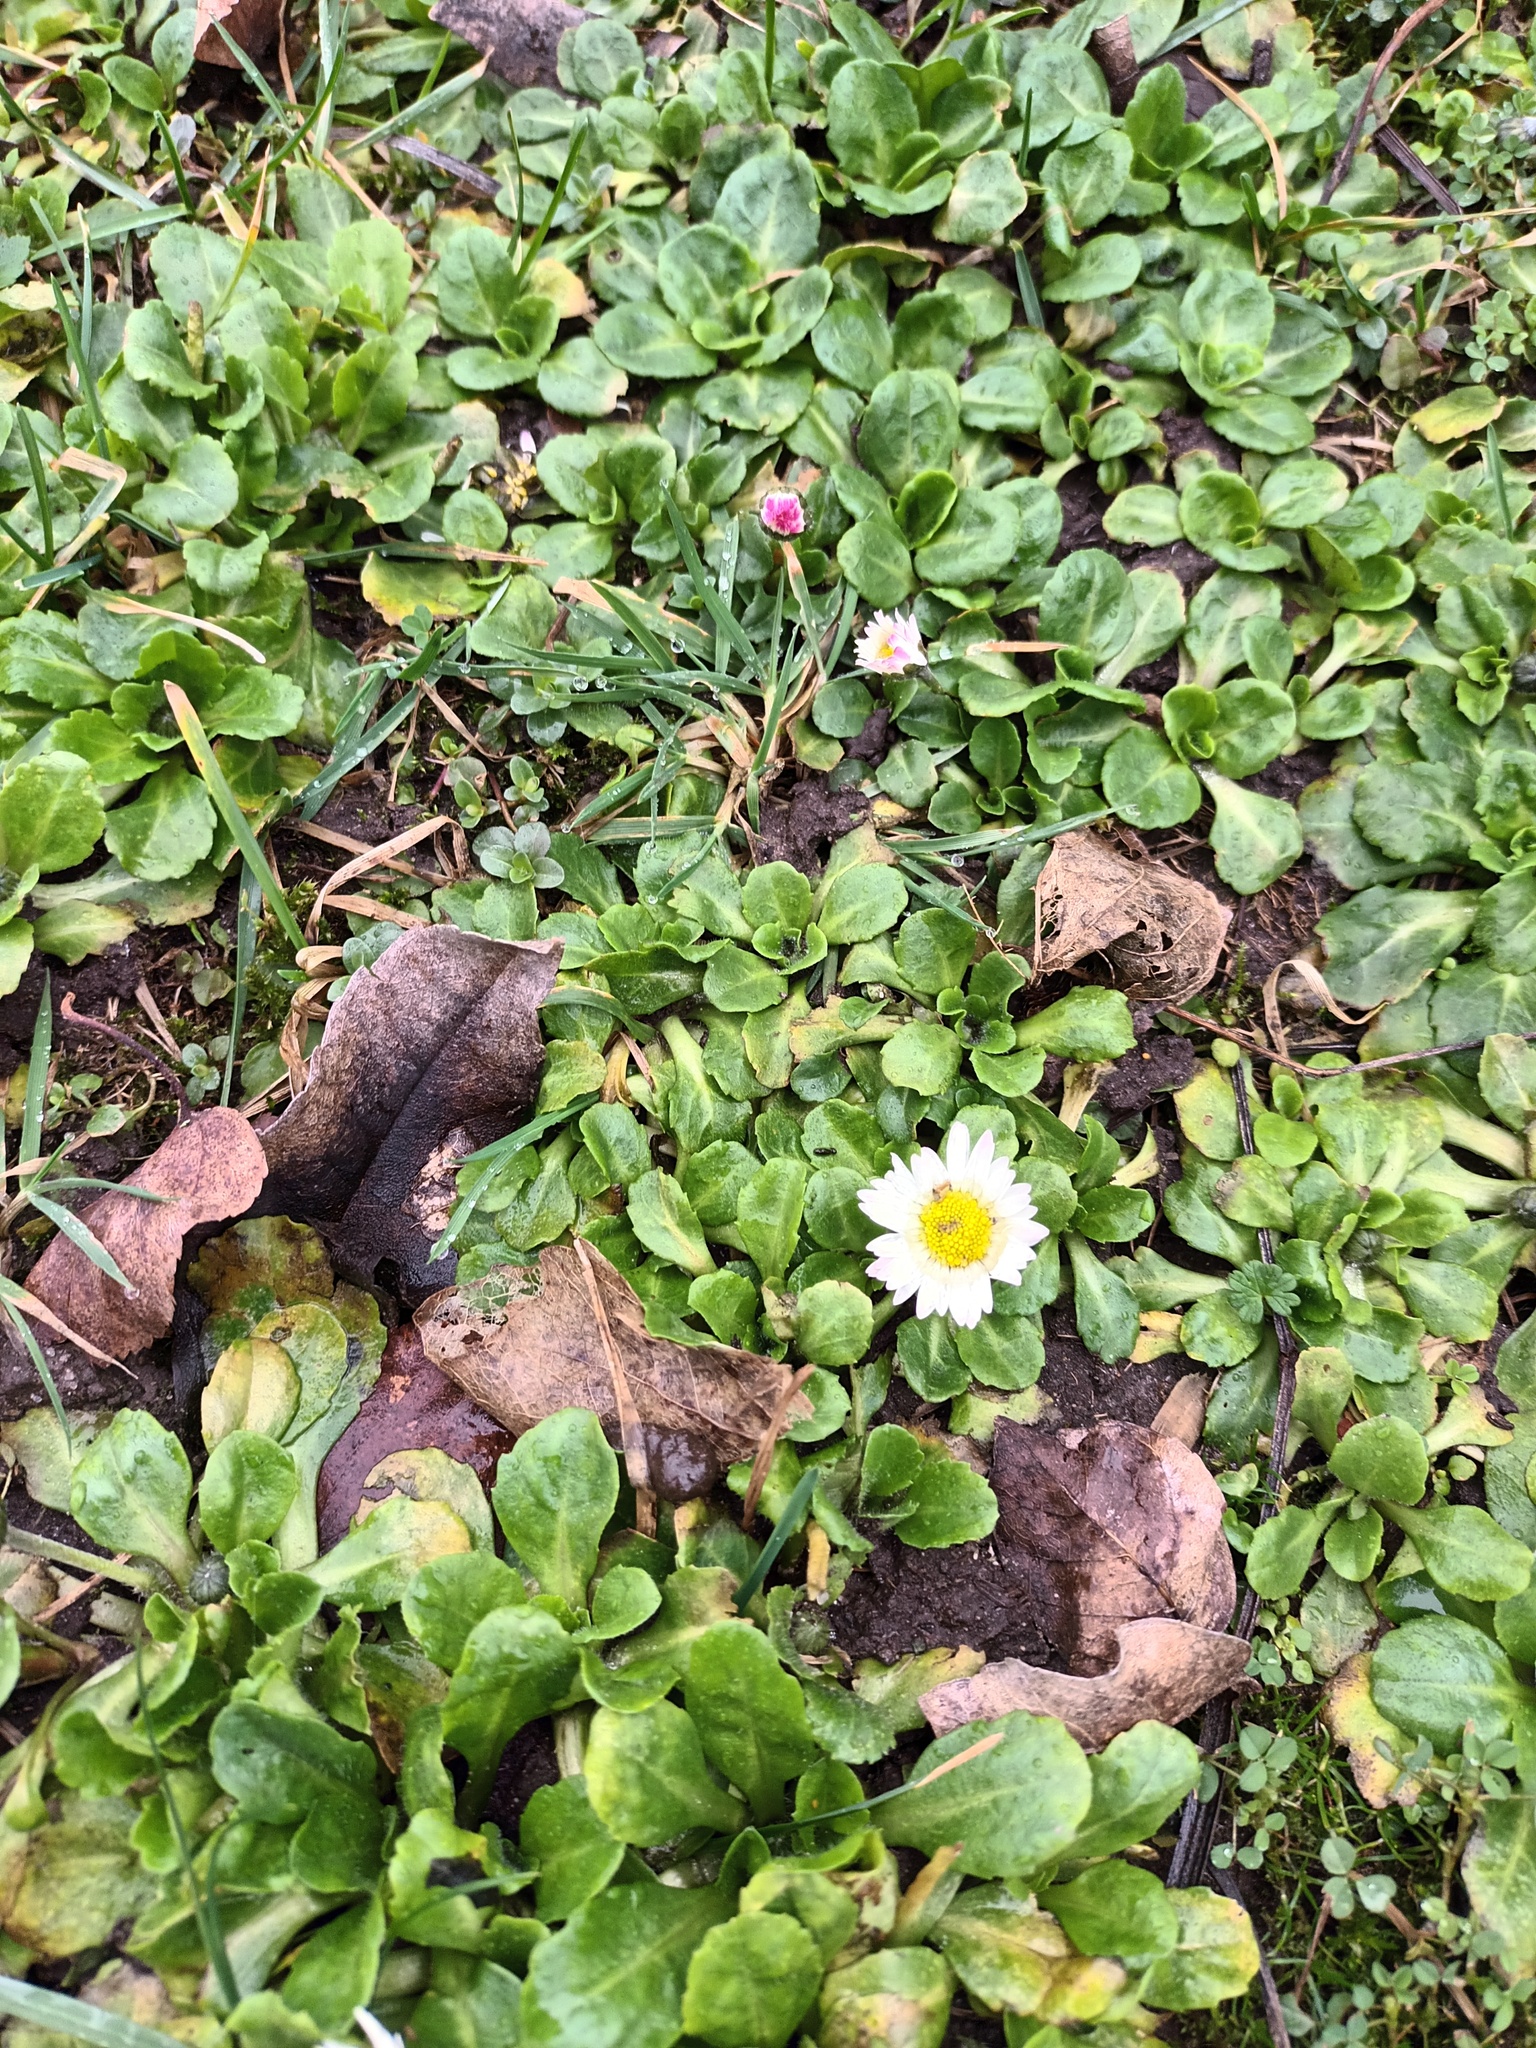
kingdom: Plantae
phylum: Tracheophyta
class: Magnoliopsida
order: Asterales
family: Asteraceae
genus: Bellis
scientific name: Bellis perennis
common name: Lawndaisy
